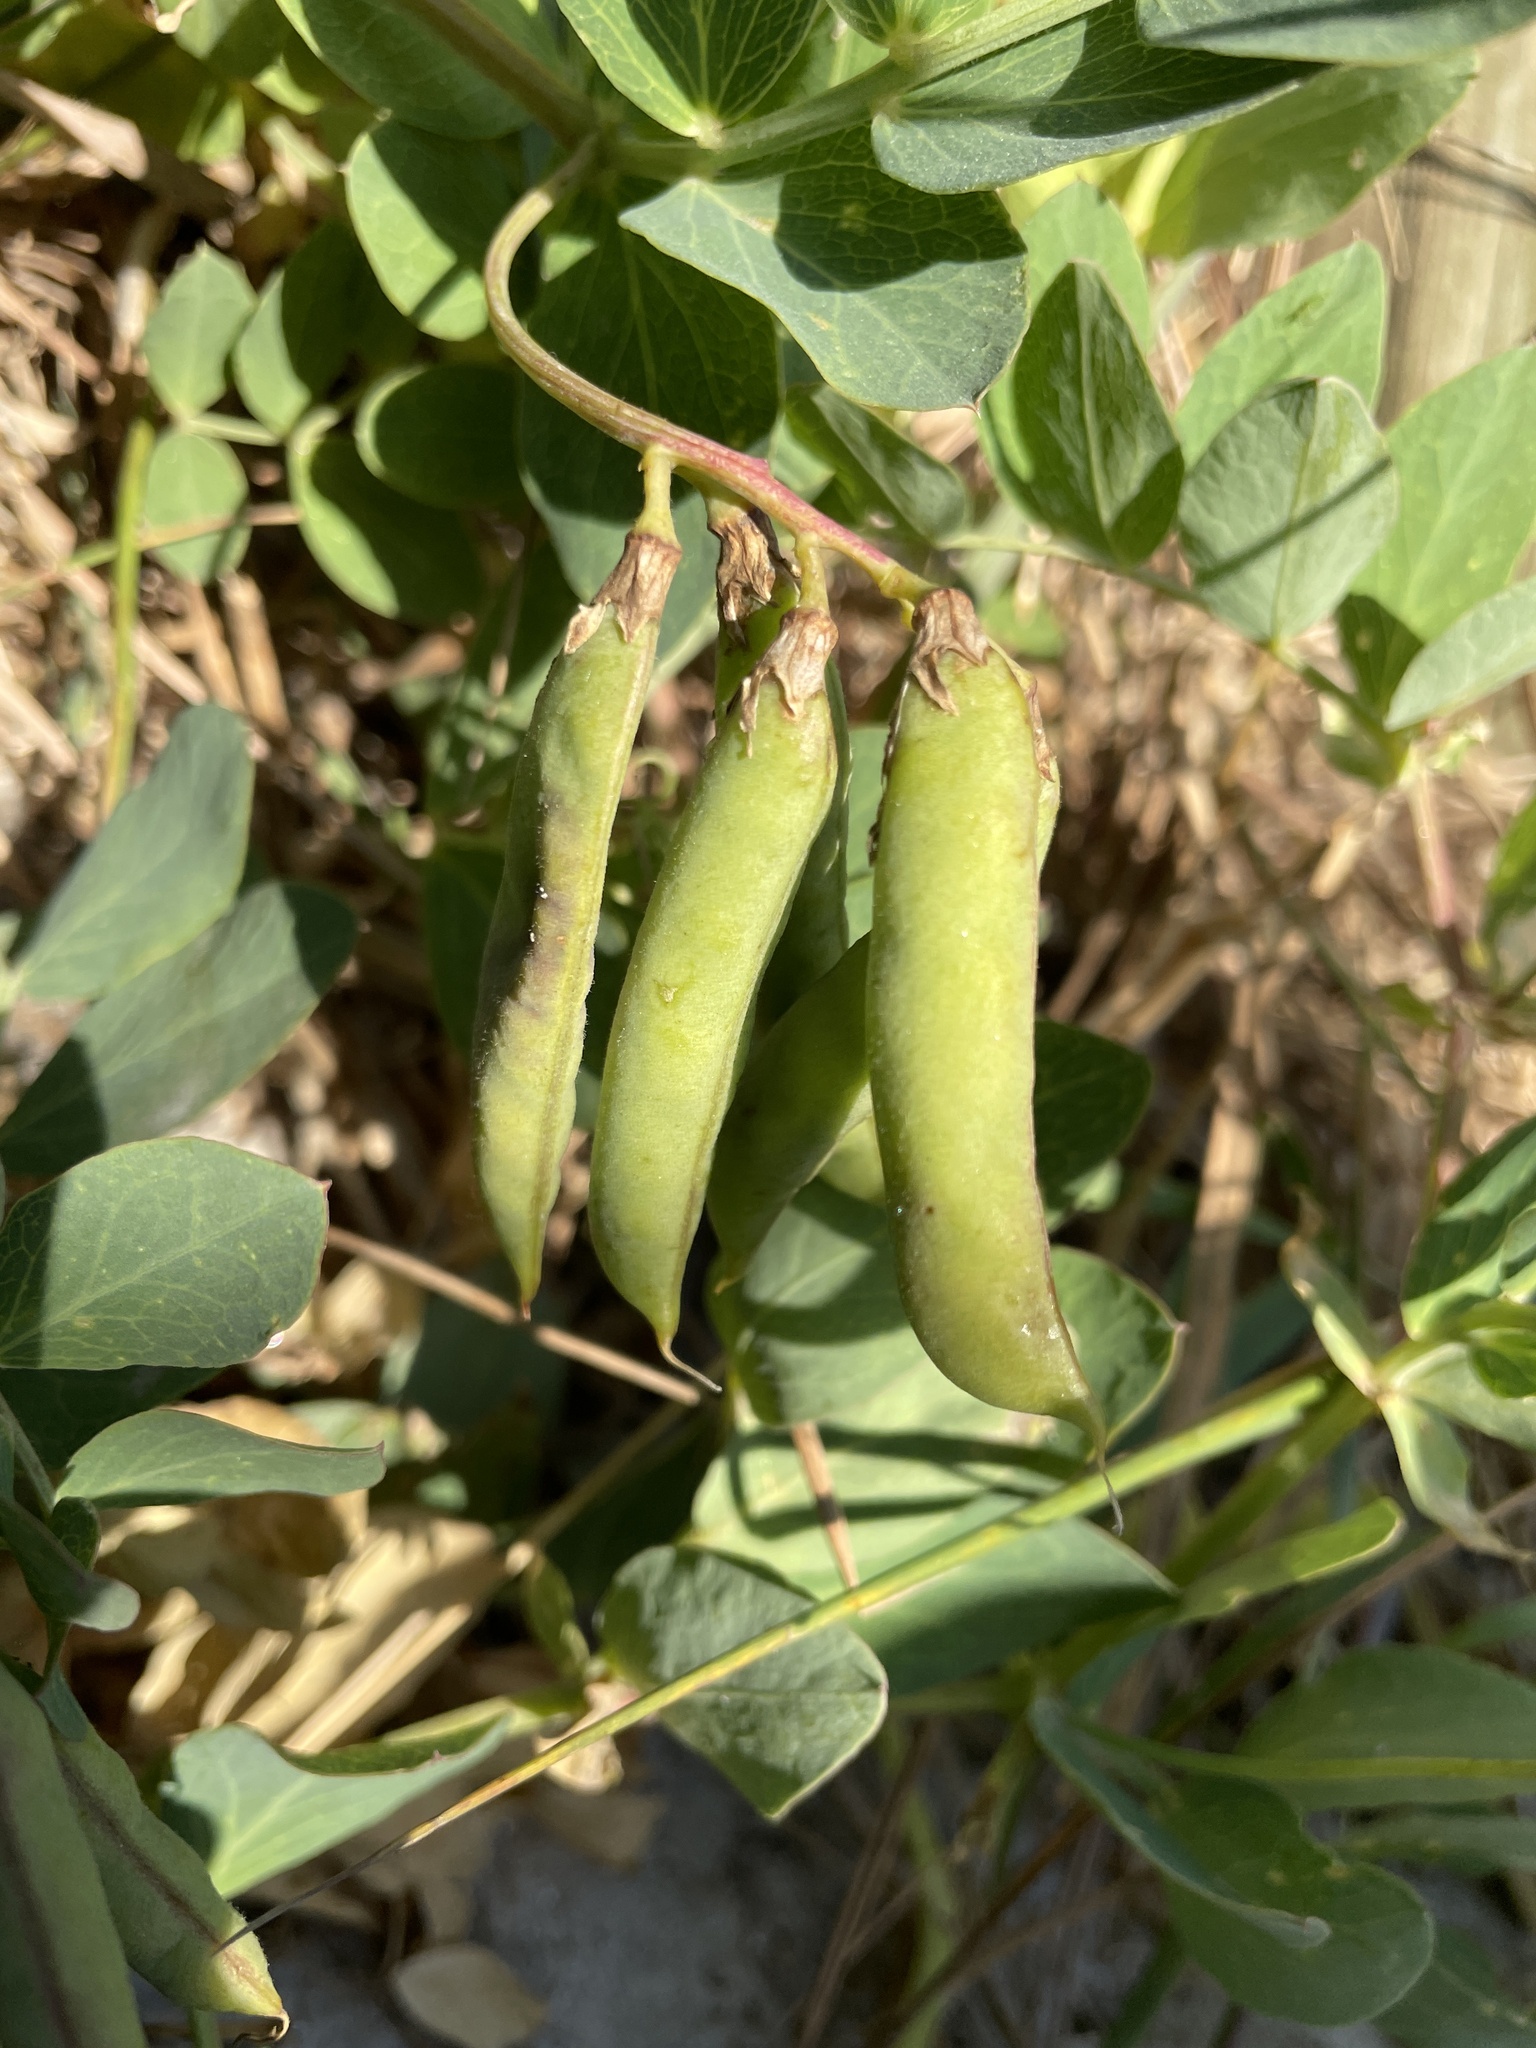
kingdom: Plantae
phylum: Tracheophyta
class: Magnoliopsida
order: Fabales
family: Fabaceae
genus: Lathyrus
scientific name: Lathyrus japonicus
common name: Sea pea
